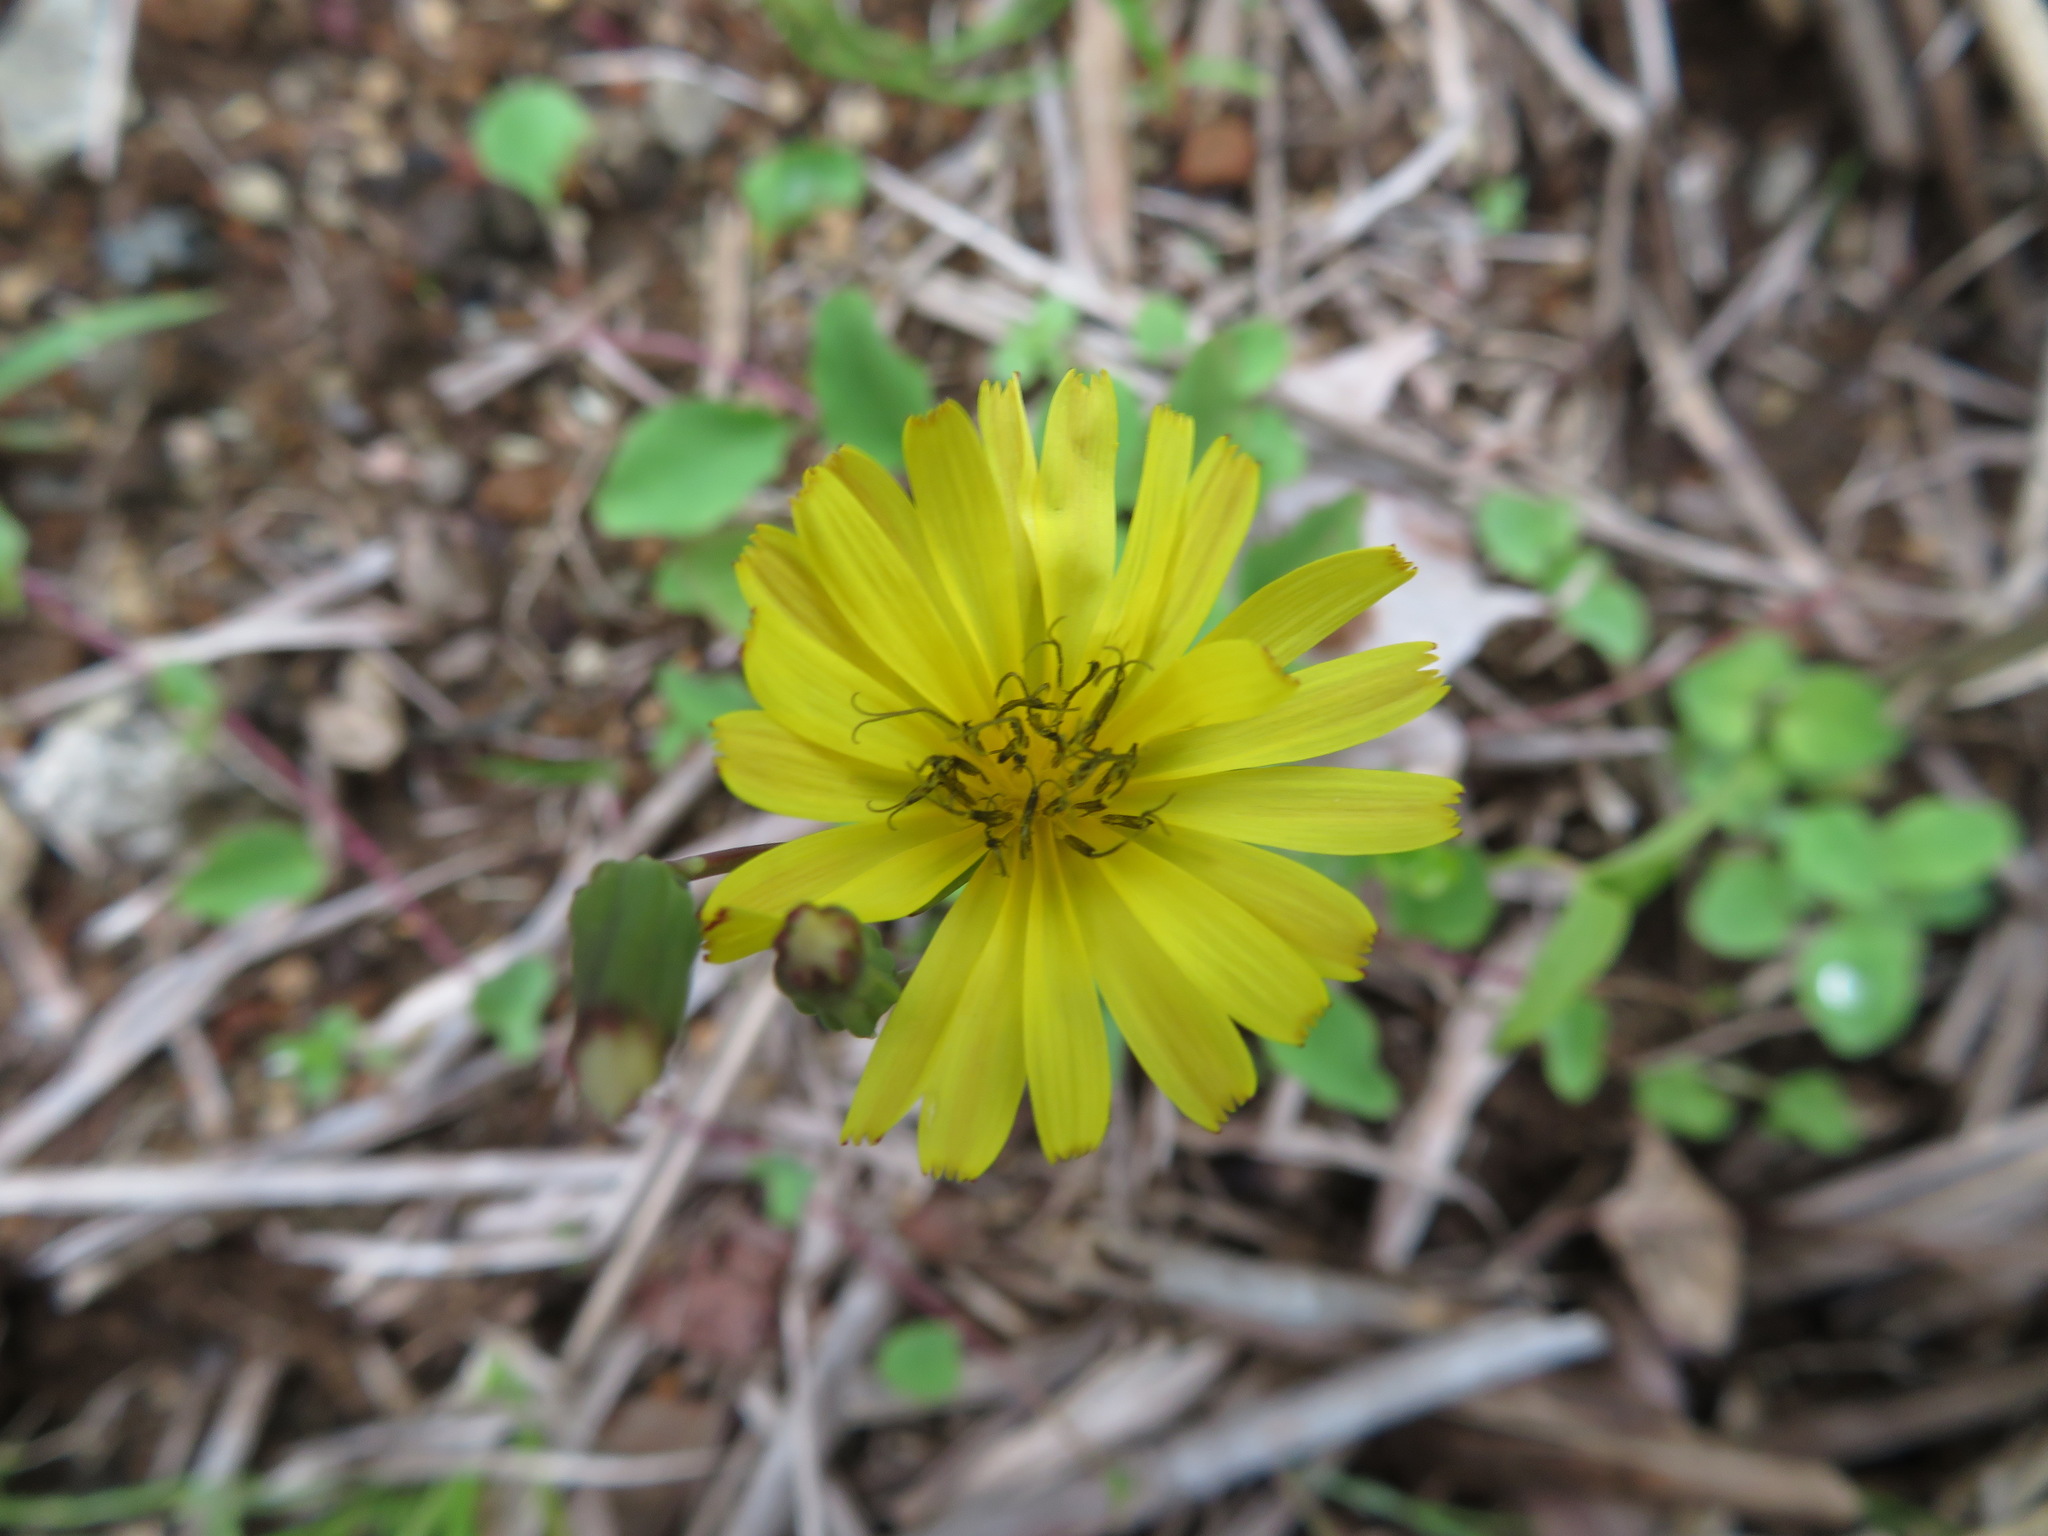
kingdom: Plantae
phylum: Tracheophyta
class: Magnoliopsida
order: Asterales
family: Asteraceae
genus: Ixeris
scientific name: Ixeris stolonifera
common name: Creeping lettuce
